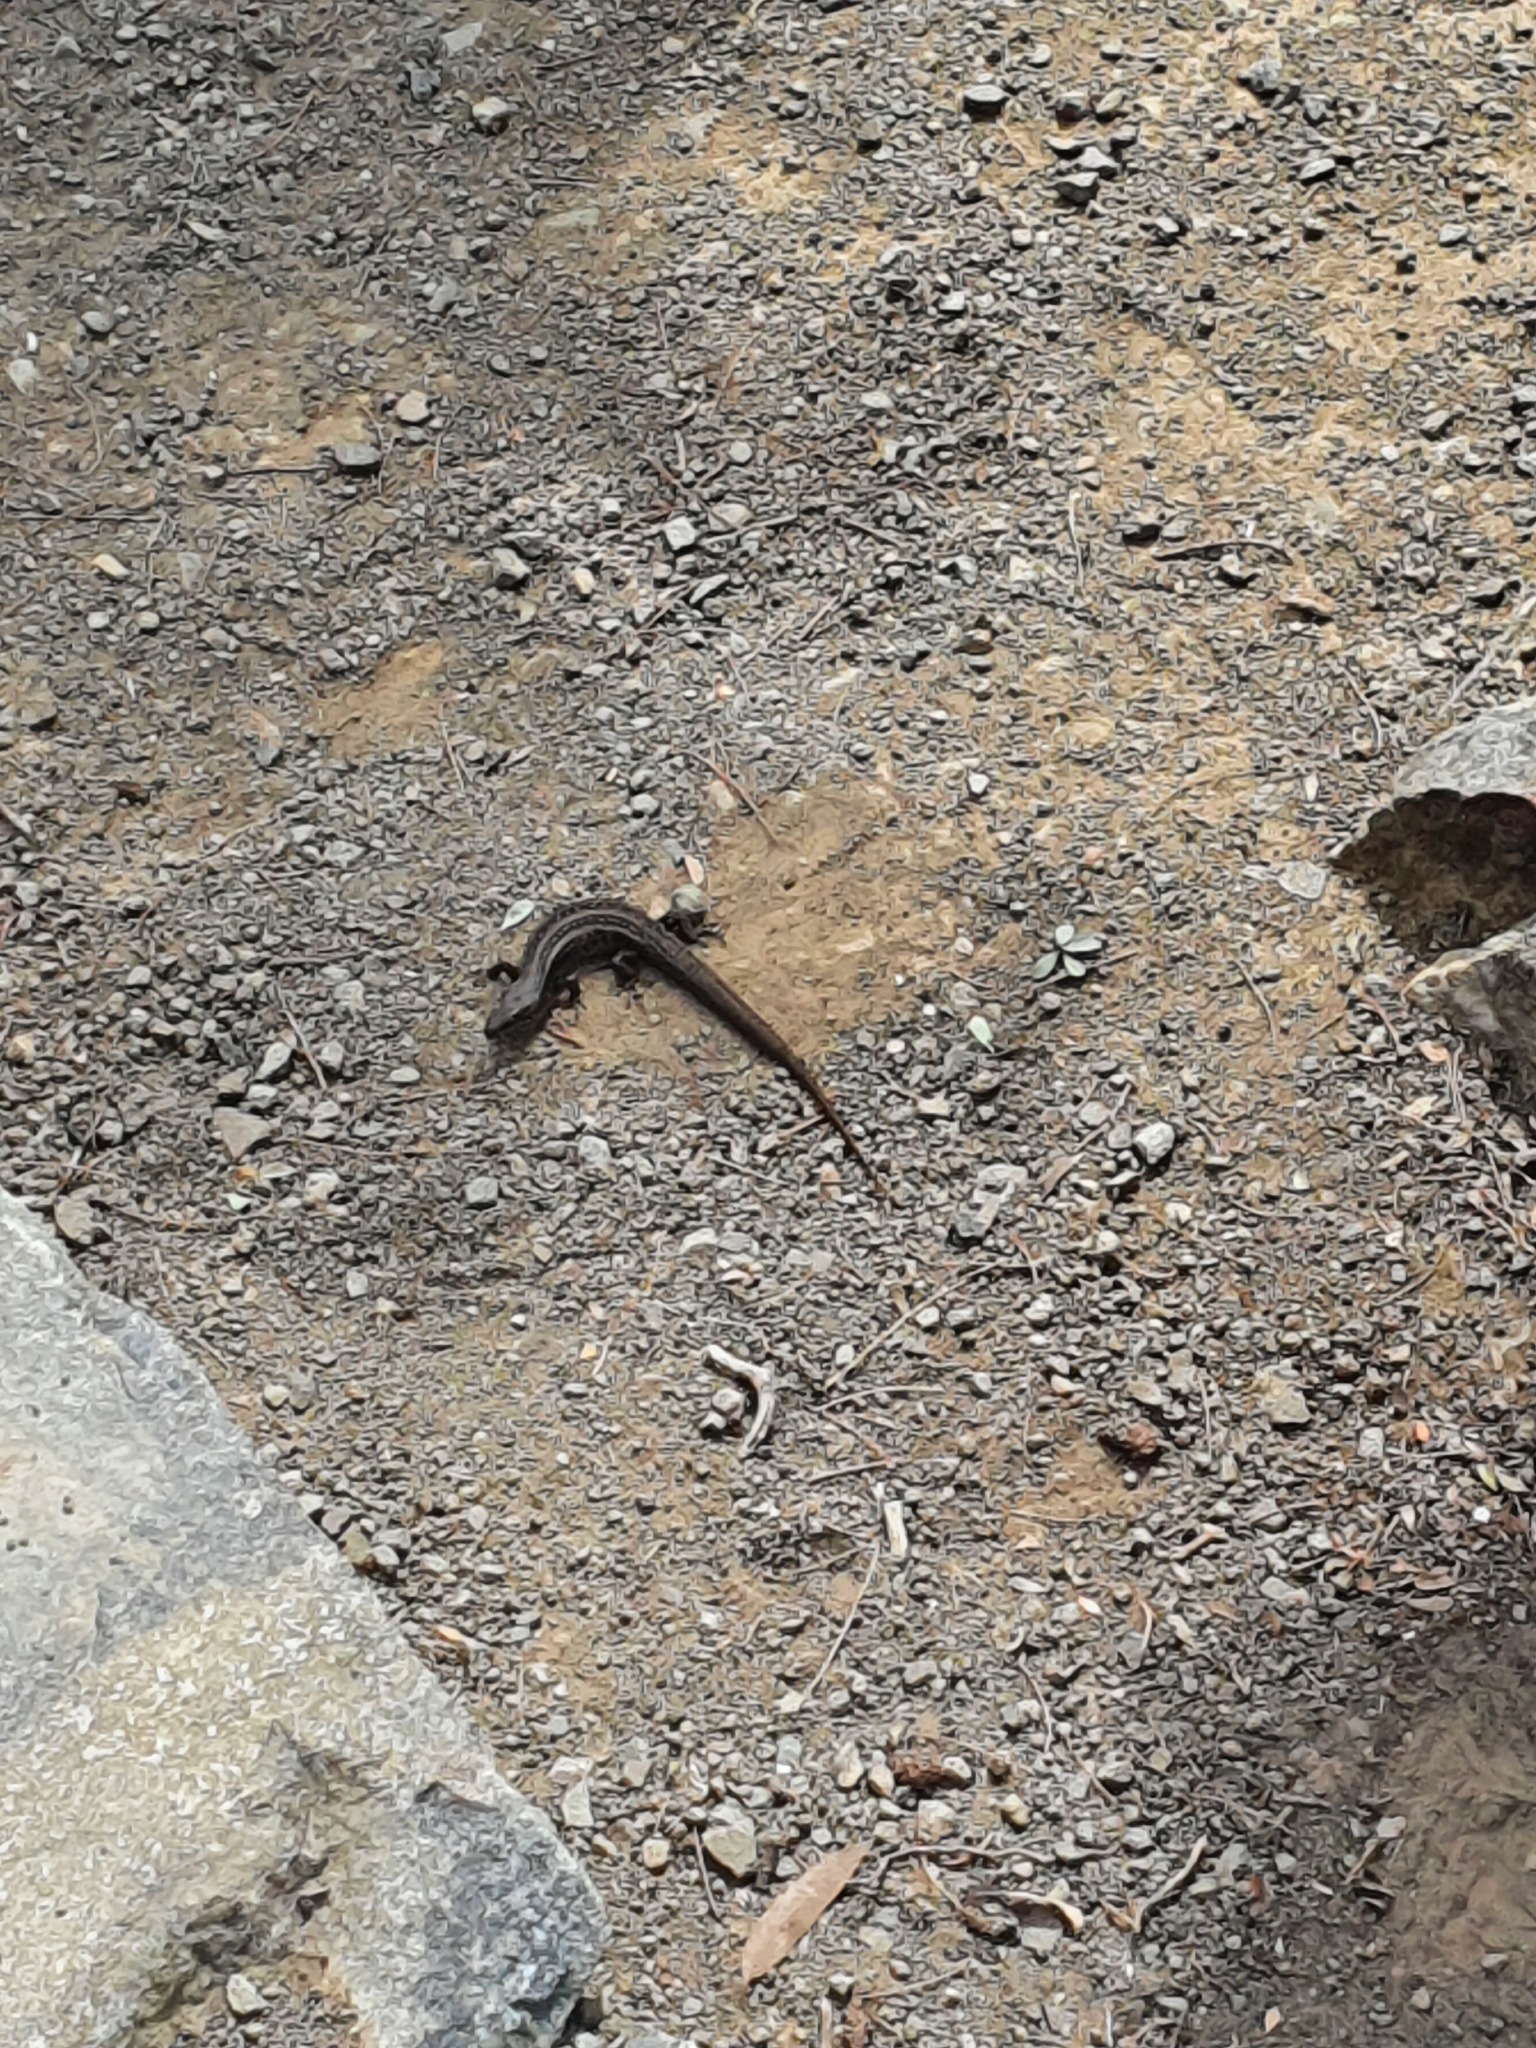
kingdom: Animalia
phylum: Chordata
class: Squamata
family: Scincidae
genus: Liopholis
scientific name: Liopholis whitii
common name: White's rock-skink
